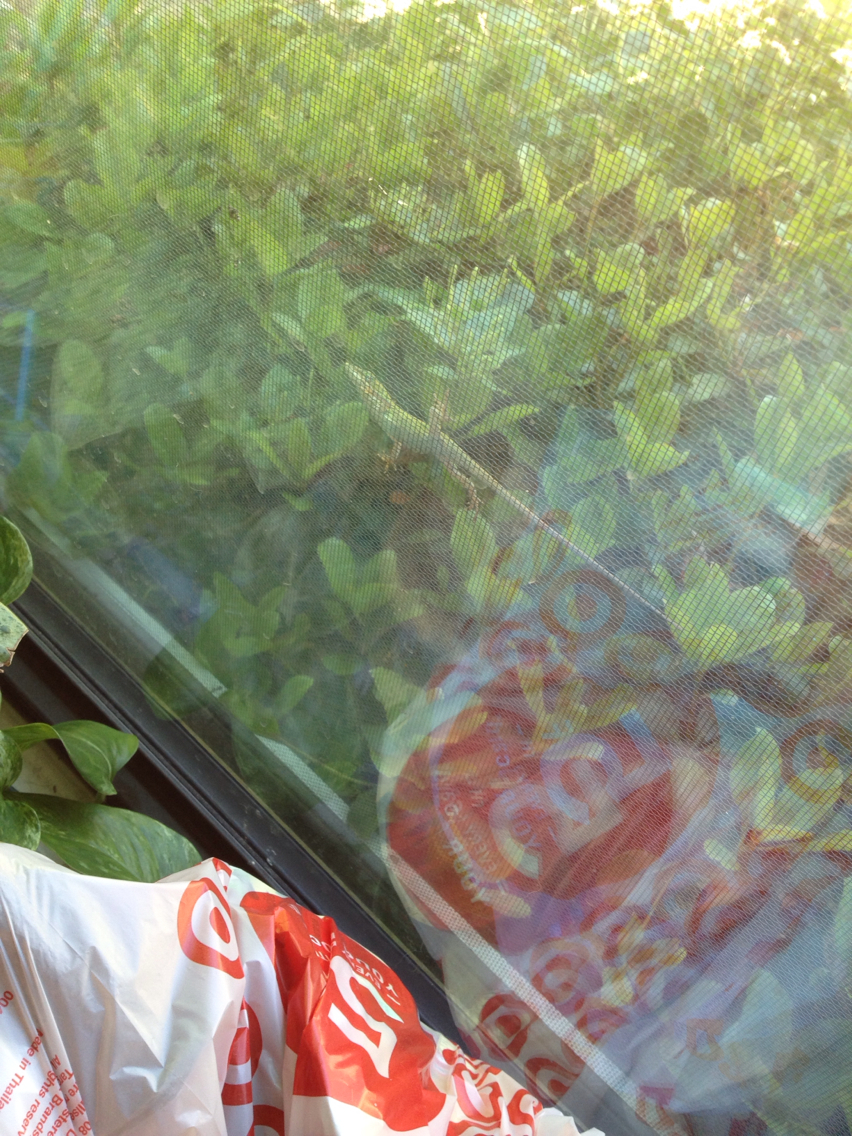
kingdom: Animalia
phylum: Chordata
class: Squamata
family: Dactyloidae
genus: Anolis
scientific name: Anolis carolinensis
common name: Green anole
